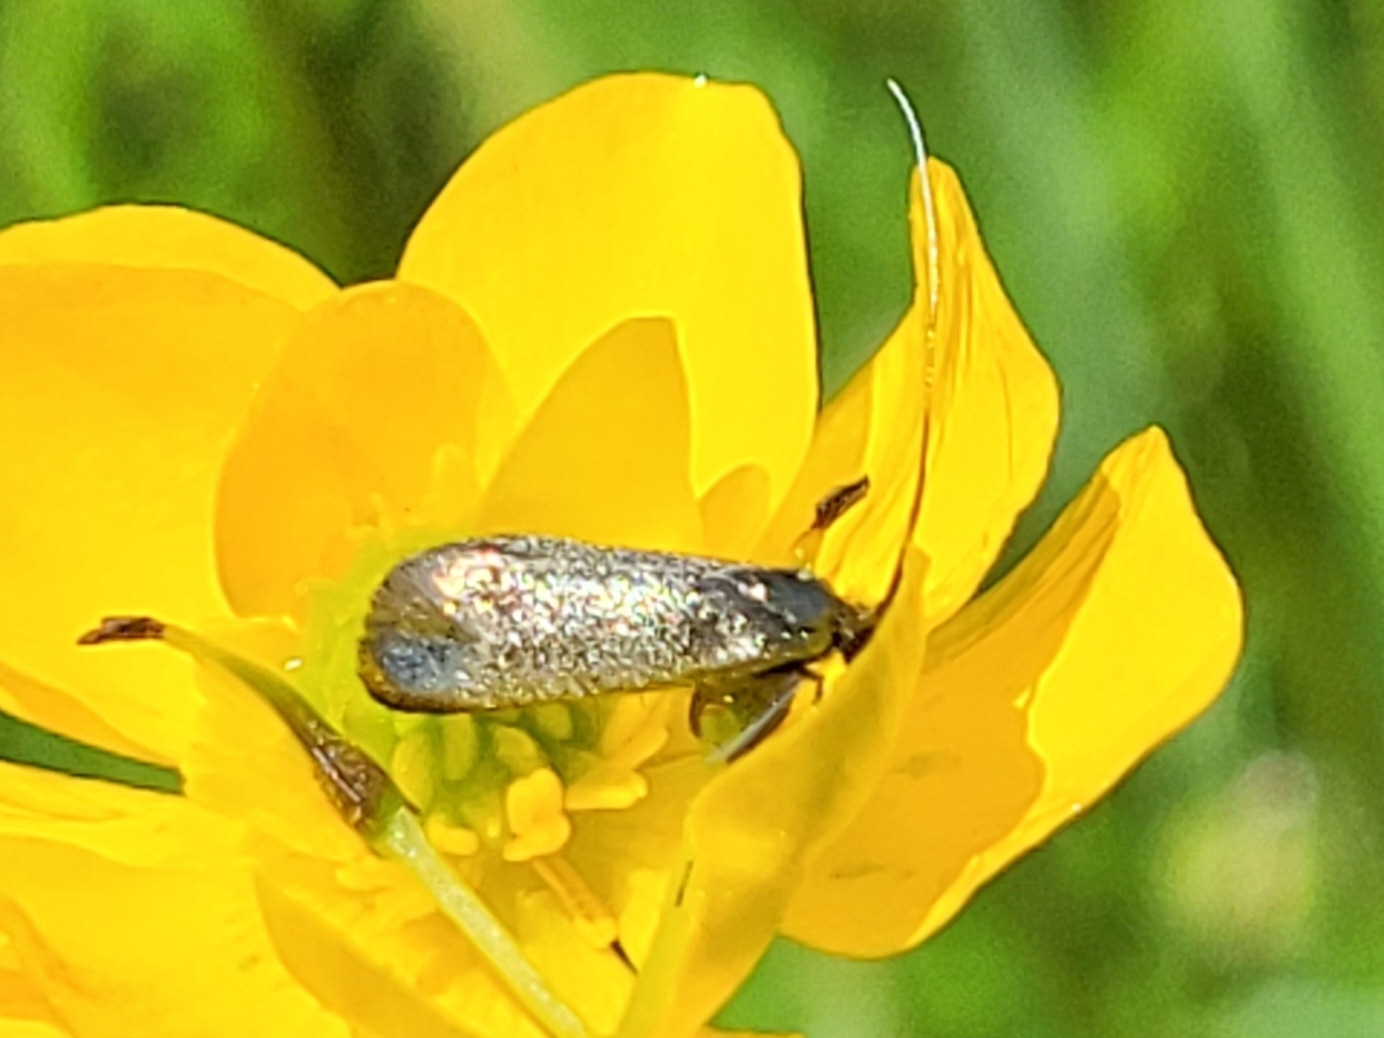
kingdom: Animalia
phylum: Arthropoda
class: Insecta
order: Lepidoptera
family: Adelidae
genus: Adela
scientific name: Adela viridella
